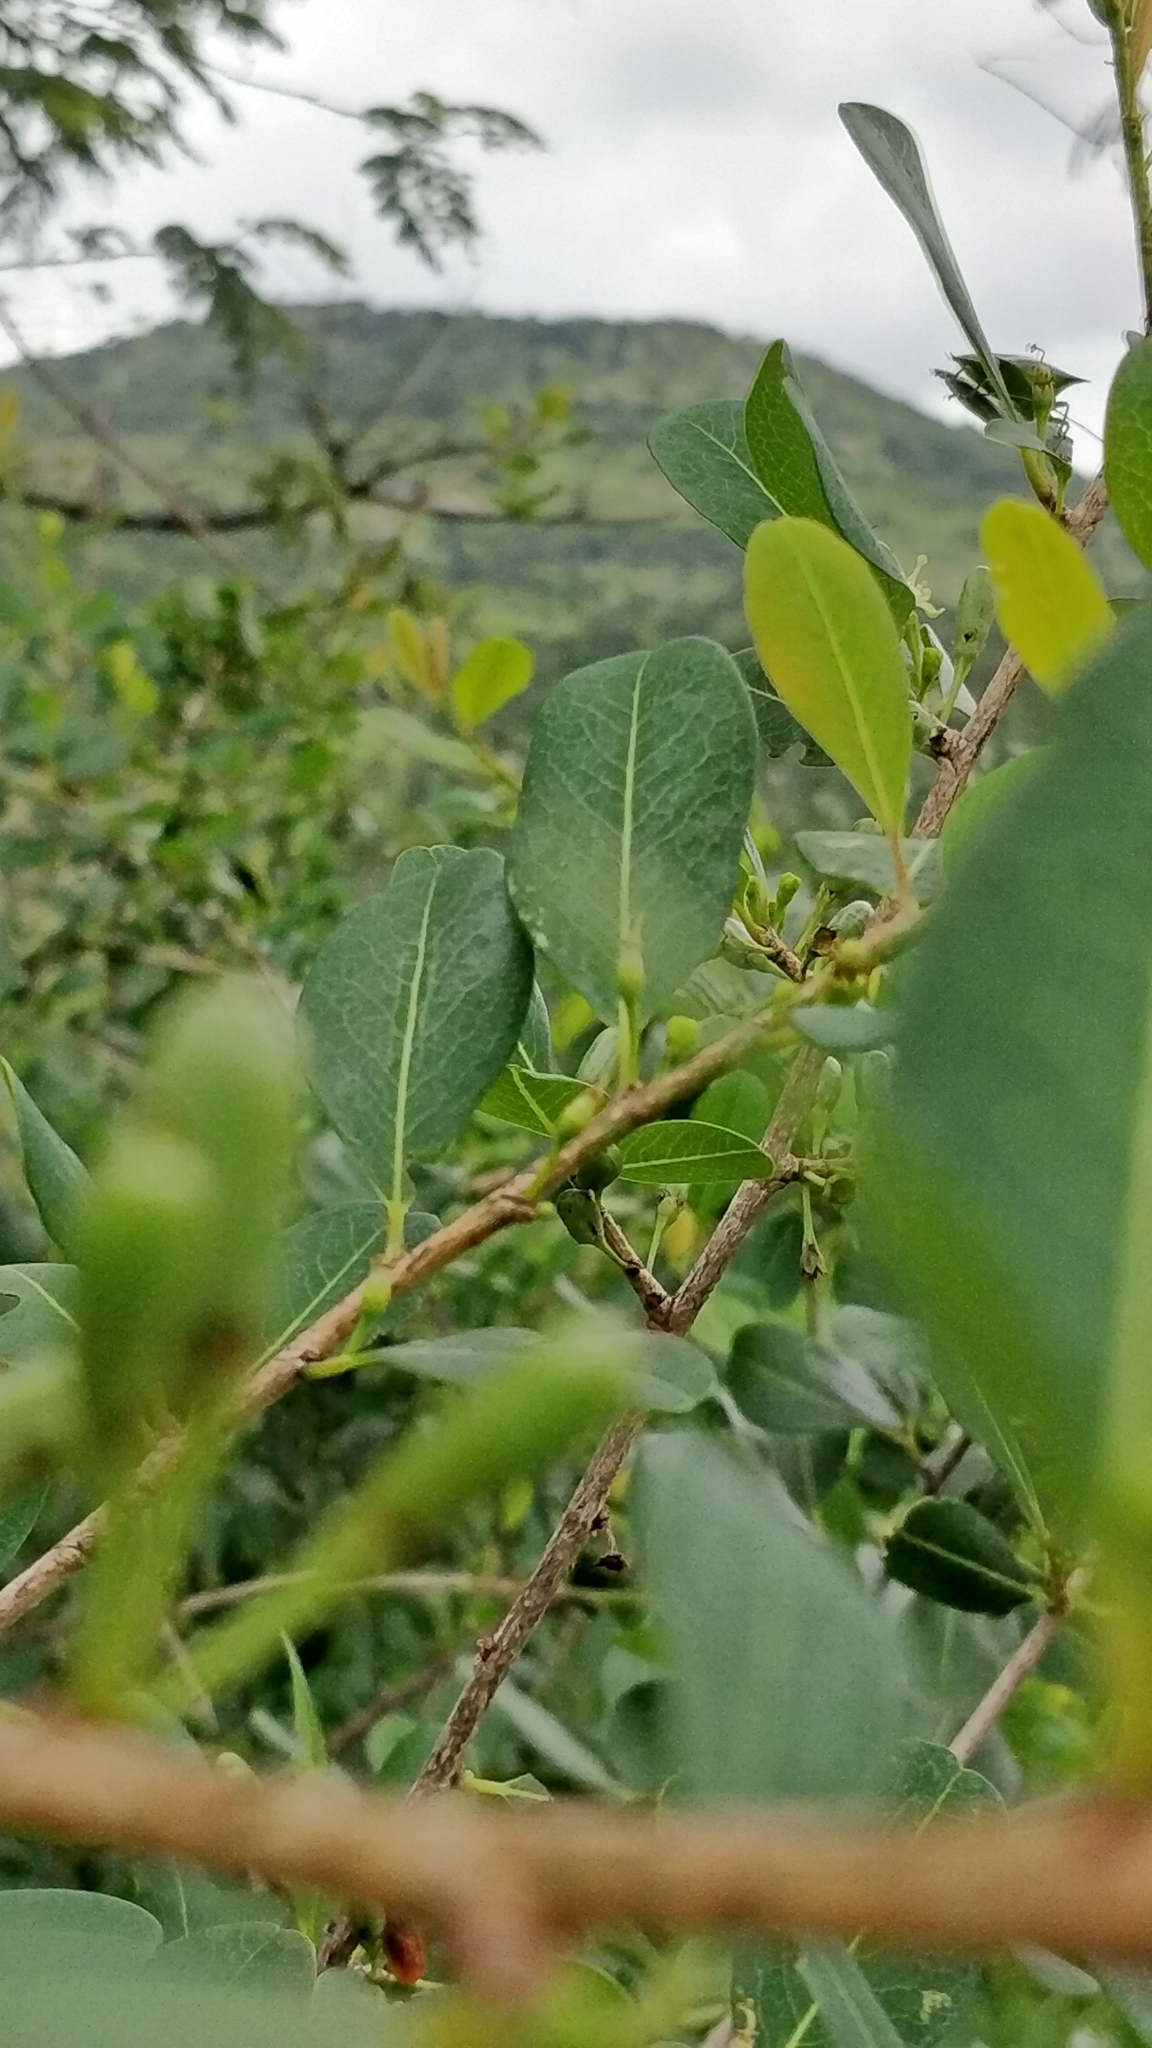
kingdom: Plantae
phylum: Tracheophyta
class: Magnoliopsida
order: Malpighiales
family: Erythroxylaceae
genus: Erythroxylum
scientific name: Erythroxylum monogynum
